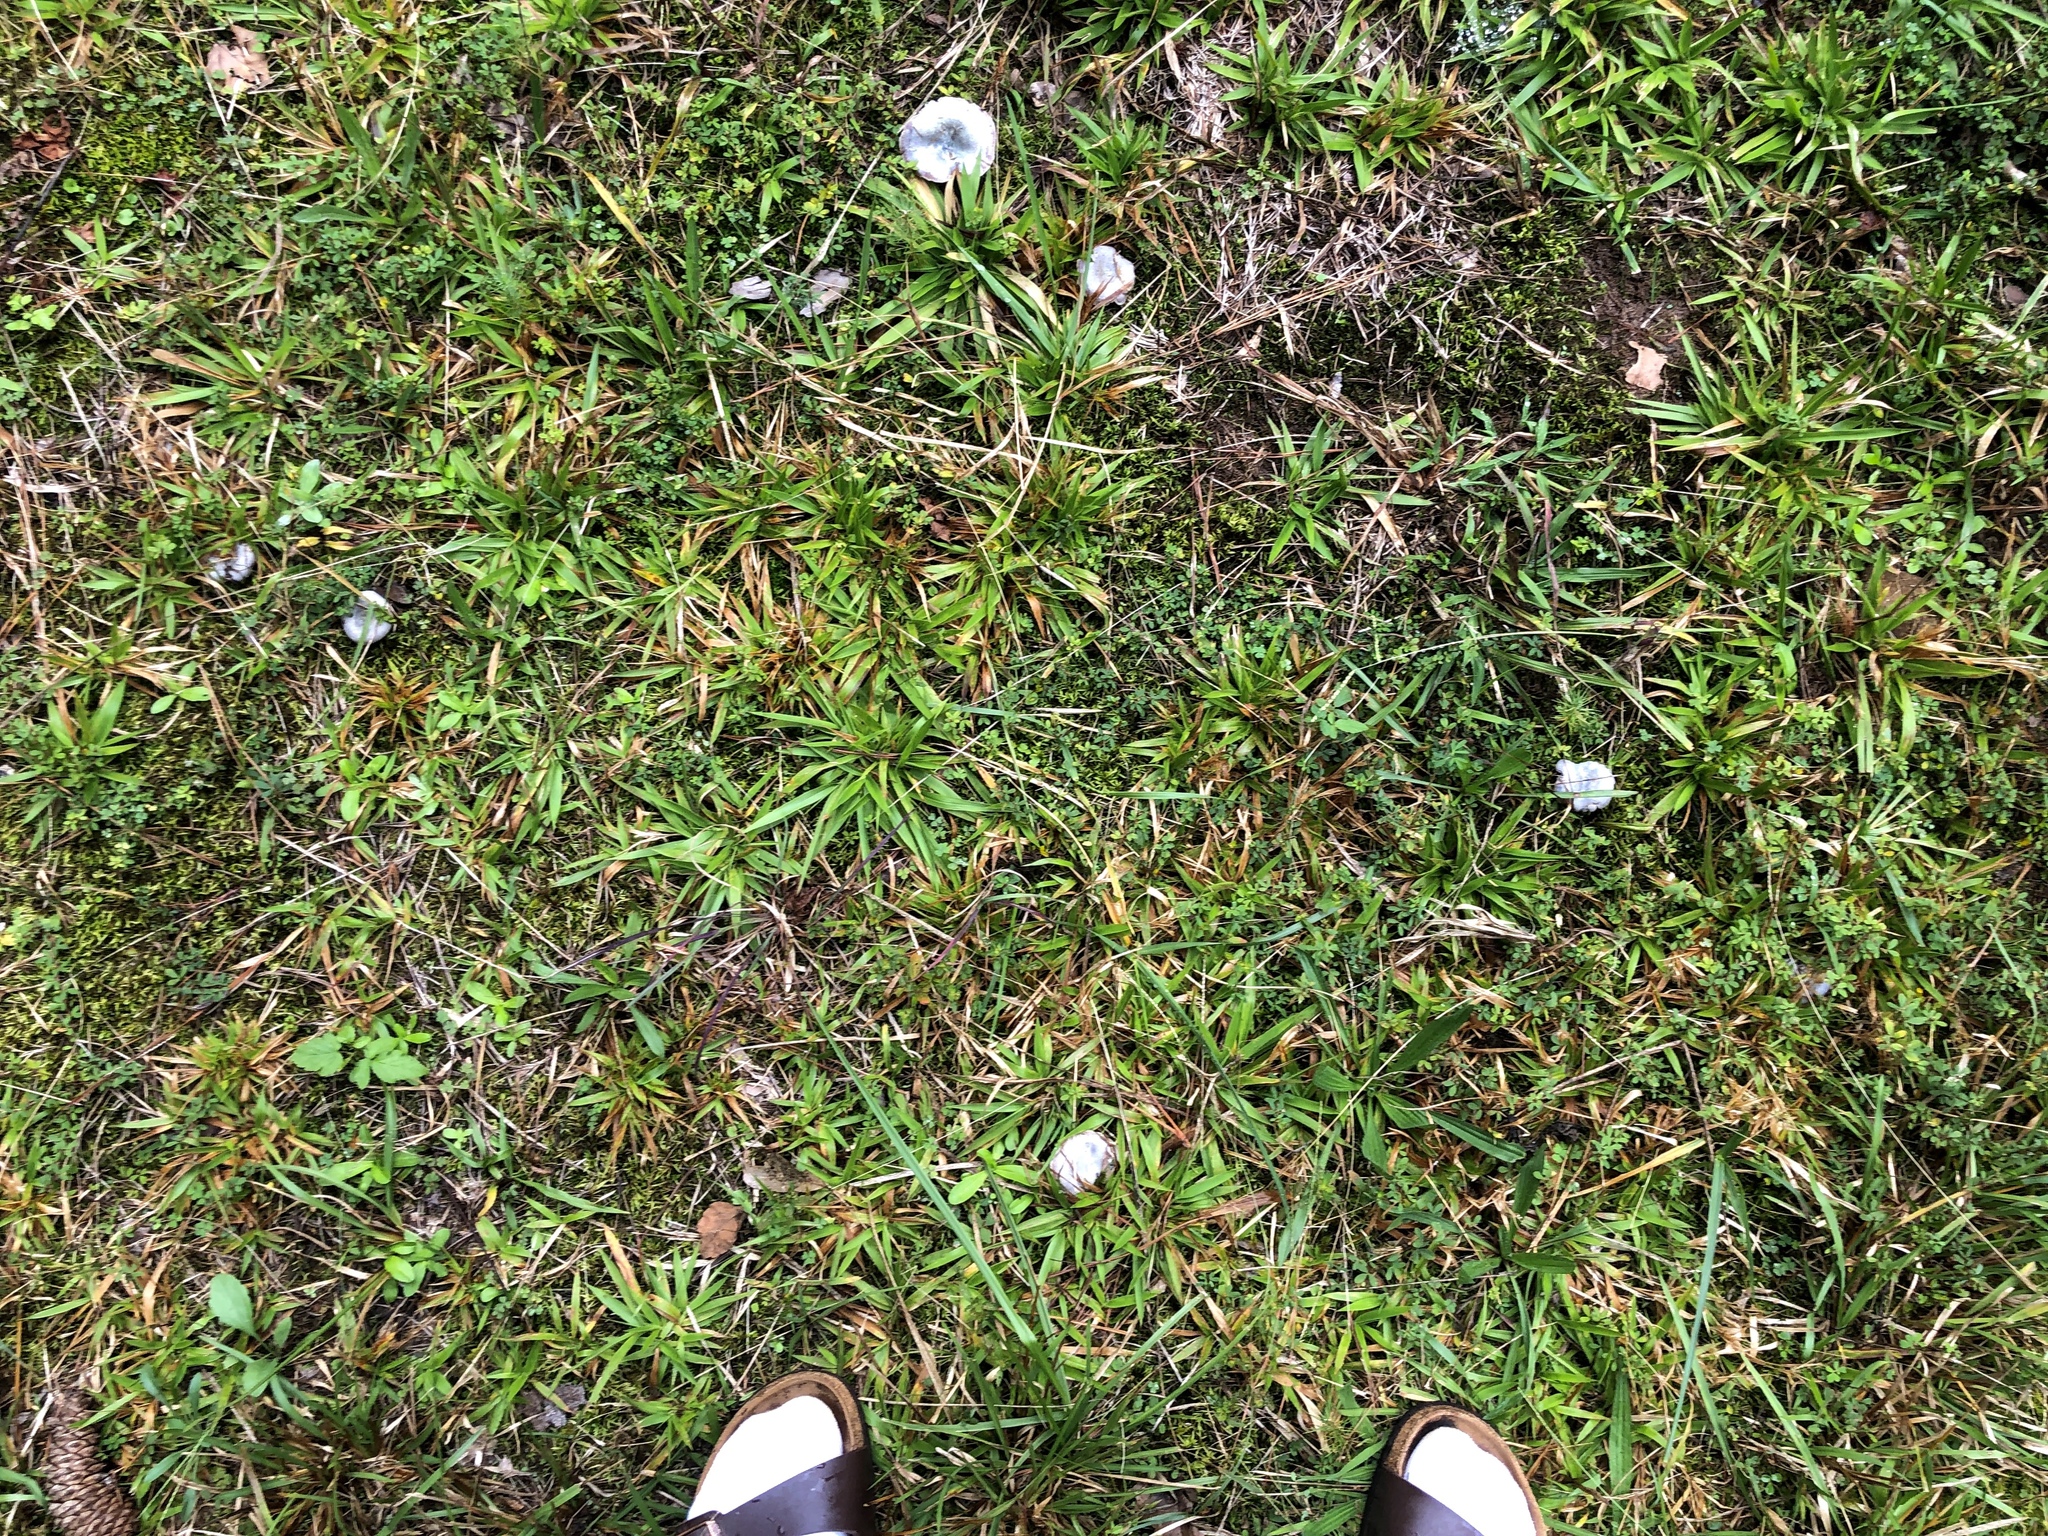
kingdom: Fungi
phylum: Basidiomycota
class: Agaricomycetes
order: Russulales
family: Russulaceae
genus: Lactarius
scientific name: Lactarius paradoxus
